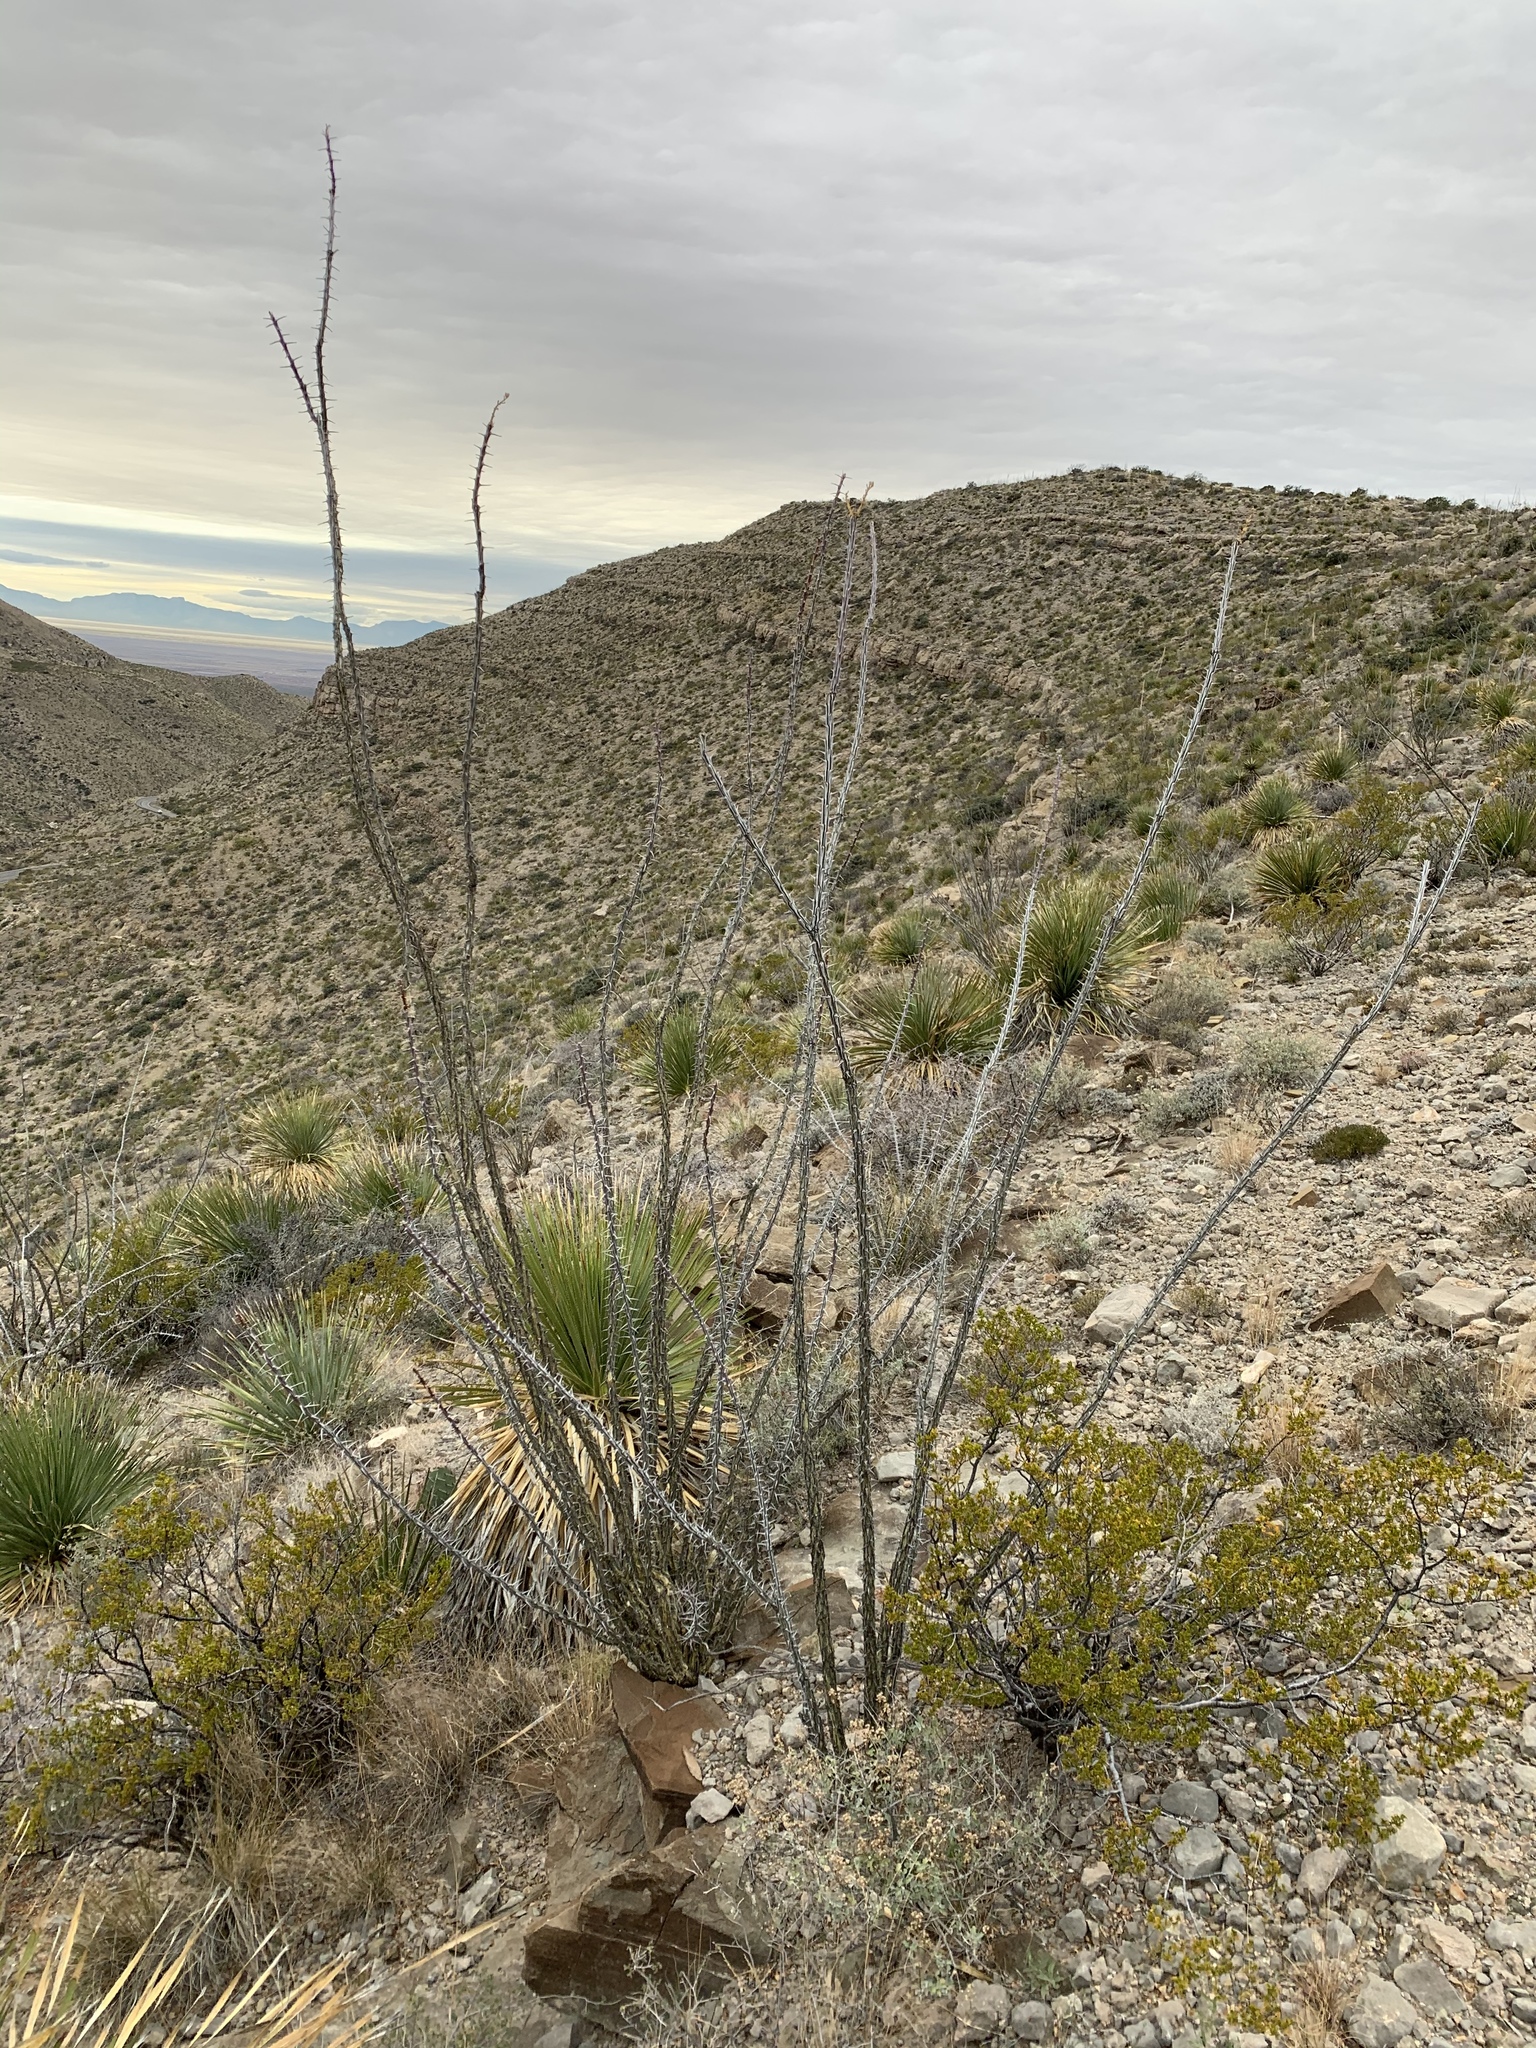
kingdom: Plantae
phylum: Tracheophyta
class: Magnoliopsida
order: Ericales
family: Fouquieriaceae
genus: Fouquieria
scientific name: Fouquieria splendens
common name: Vine-cactus
